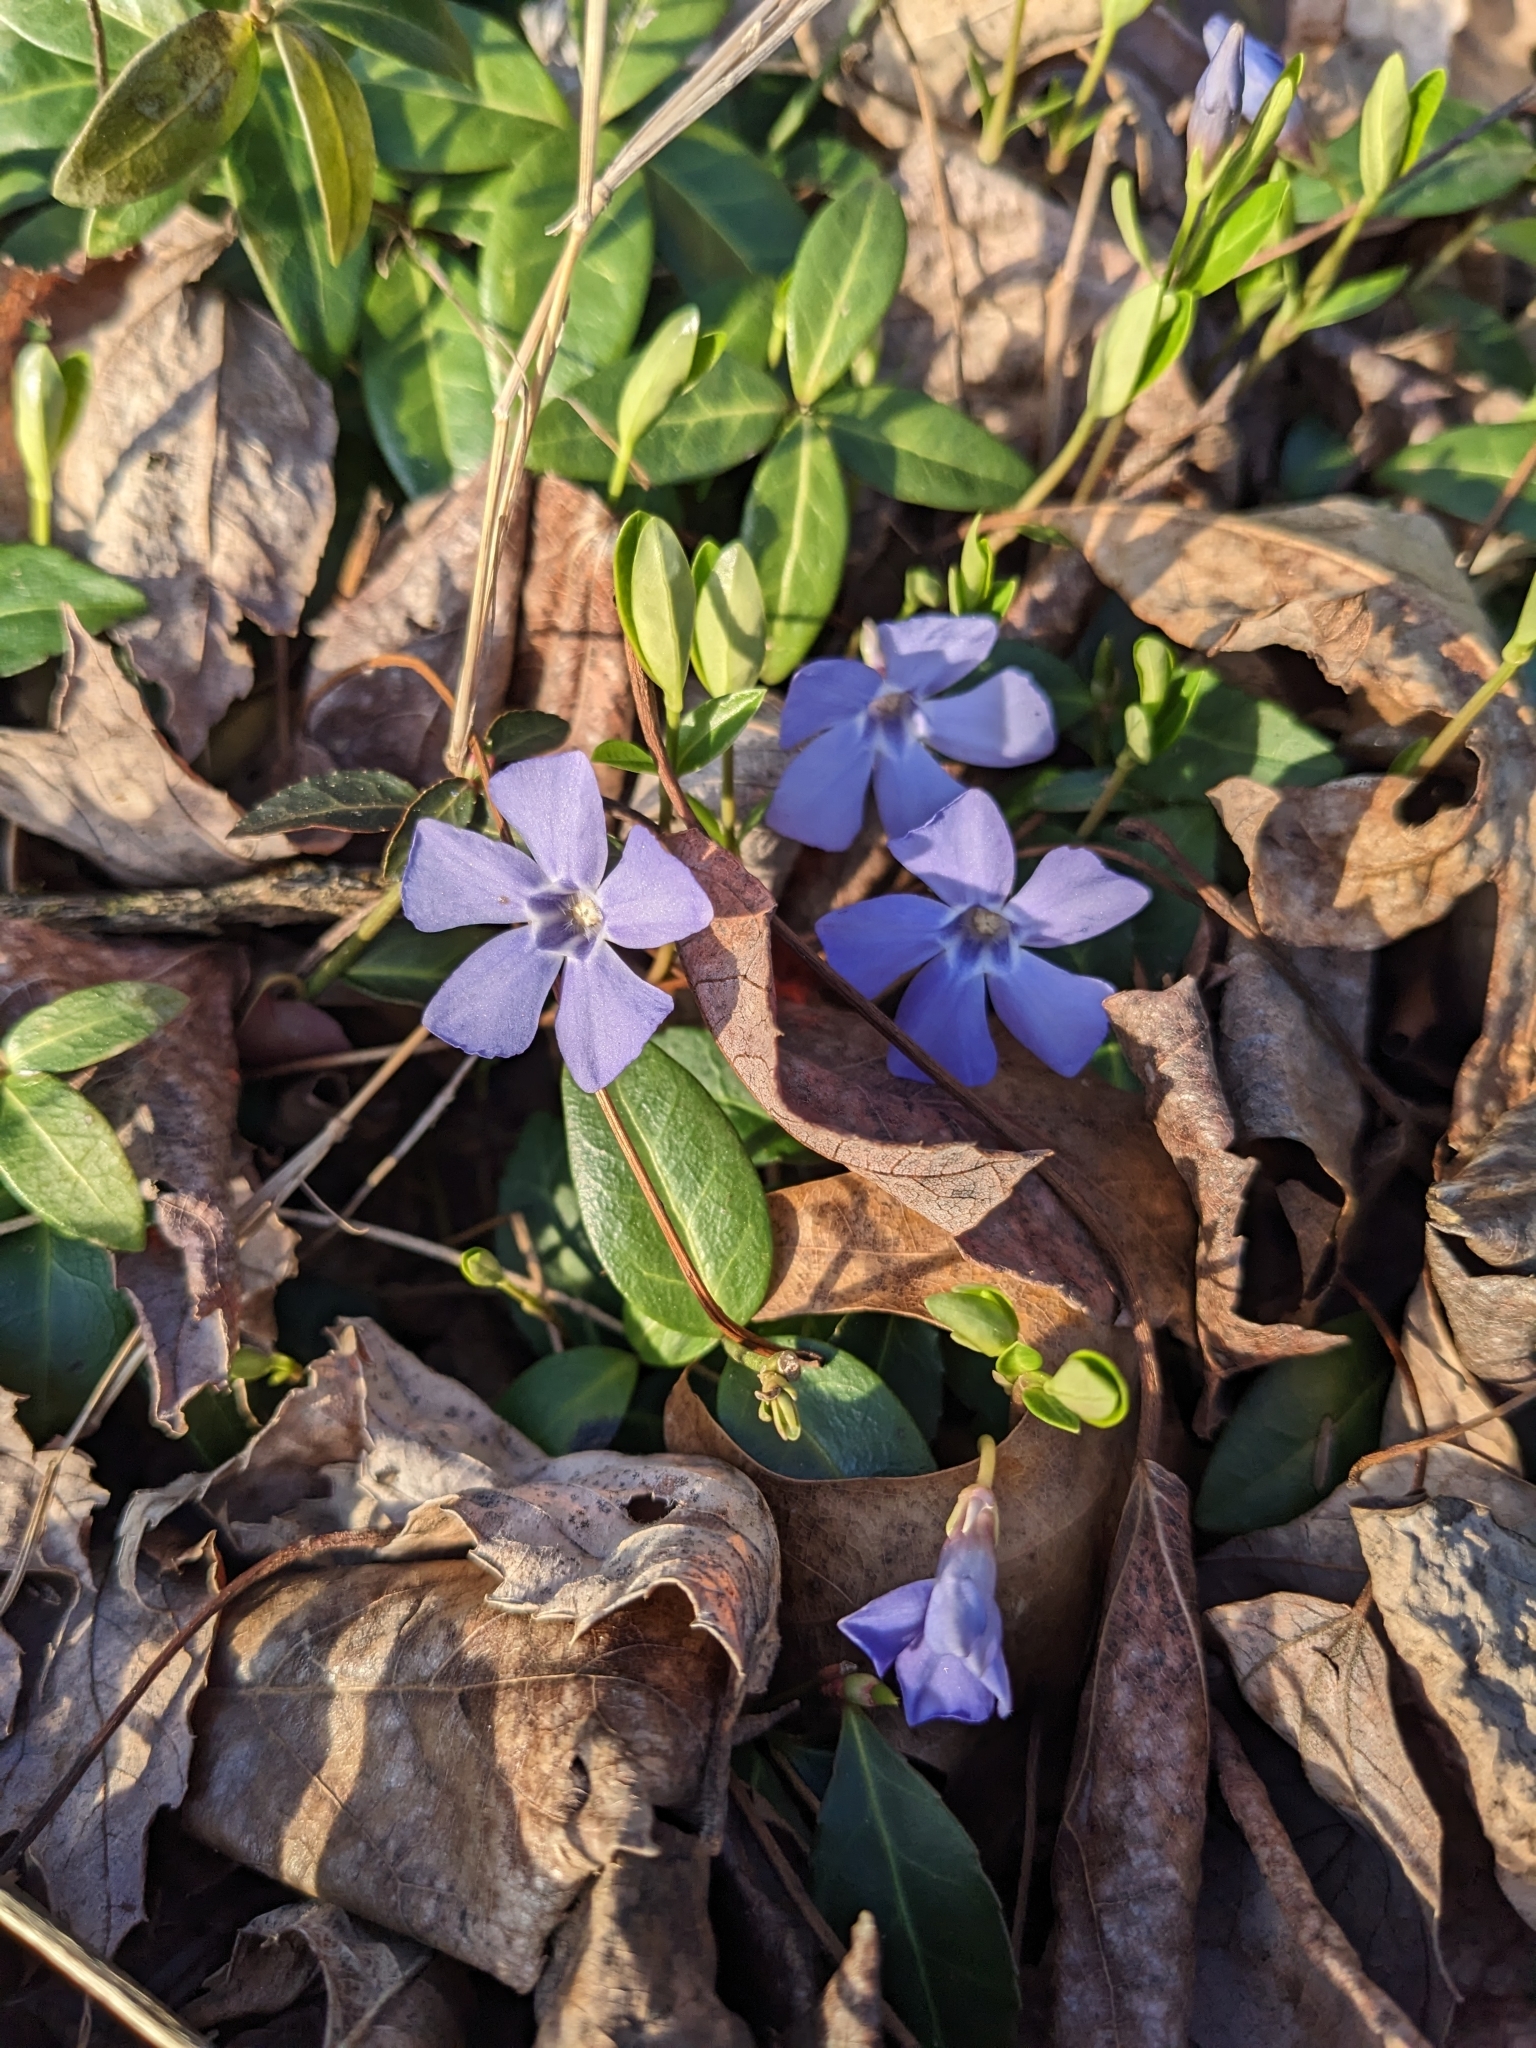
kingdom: Plantae
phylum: Tracheophyta
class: Magnoliopsida
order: Gentianales
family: Apocynaceae
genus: Vinca
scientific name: Vinca minor
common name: Lesser periwinkle
